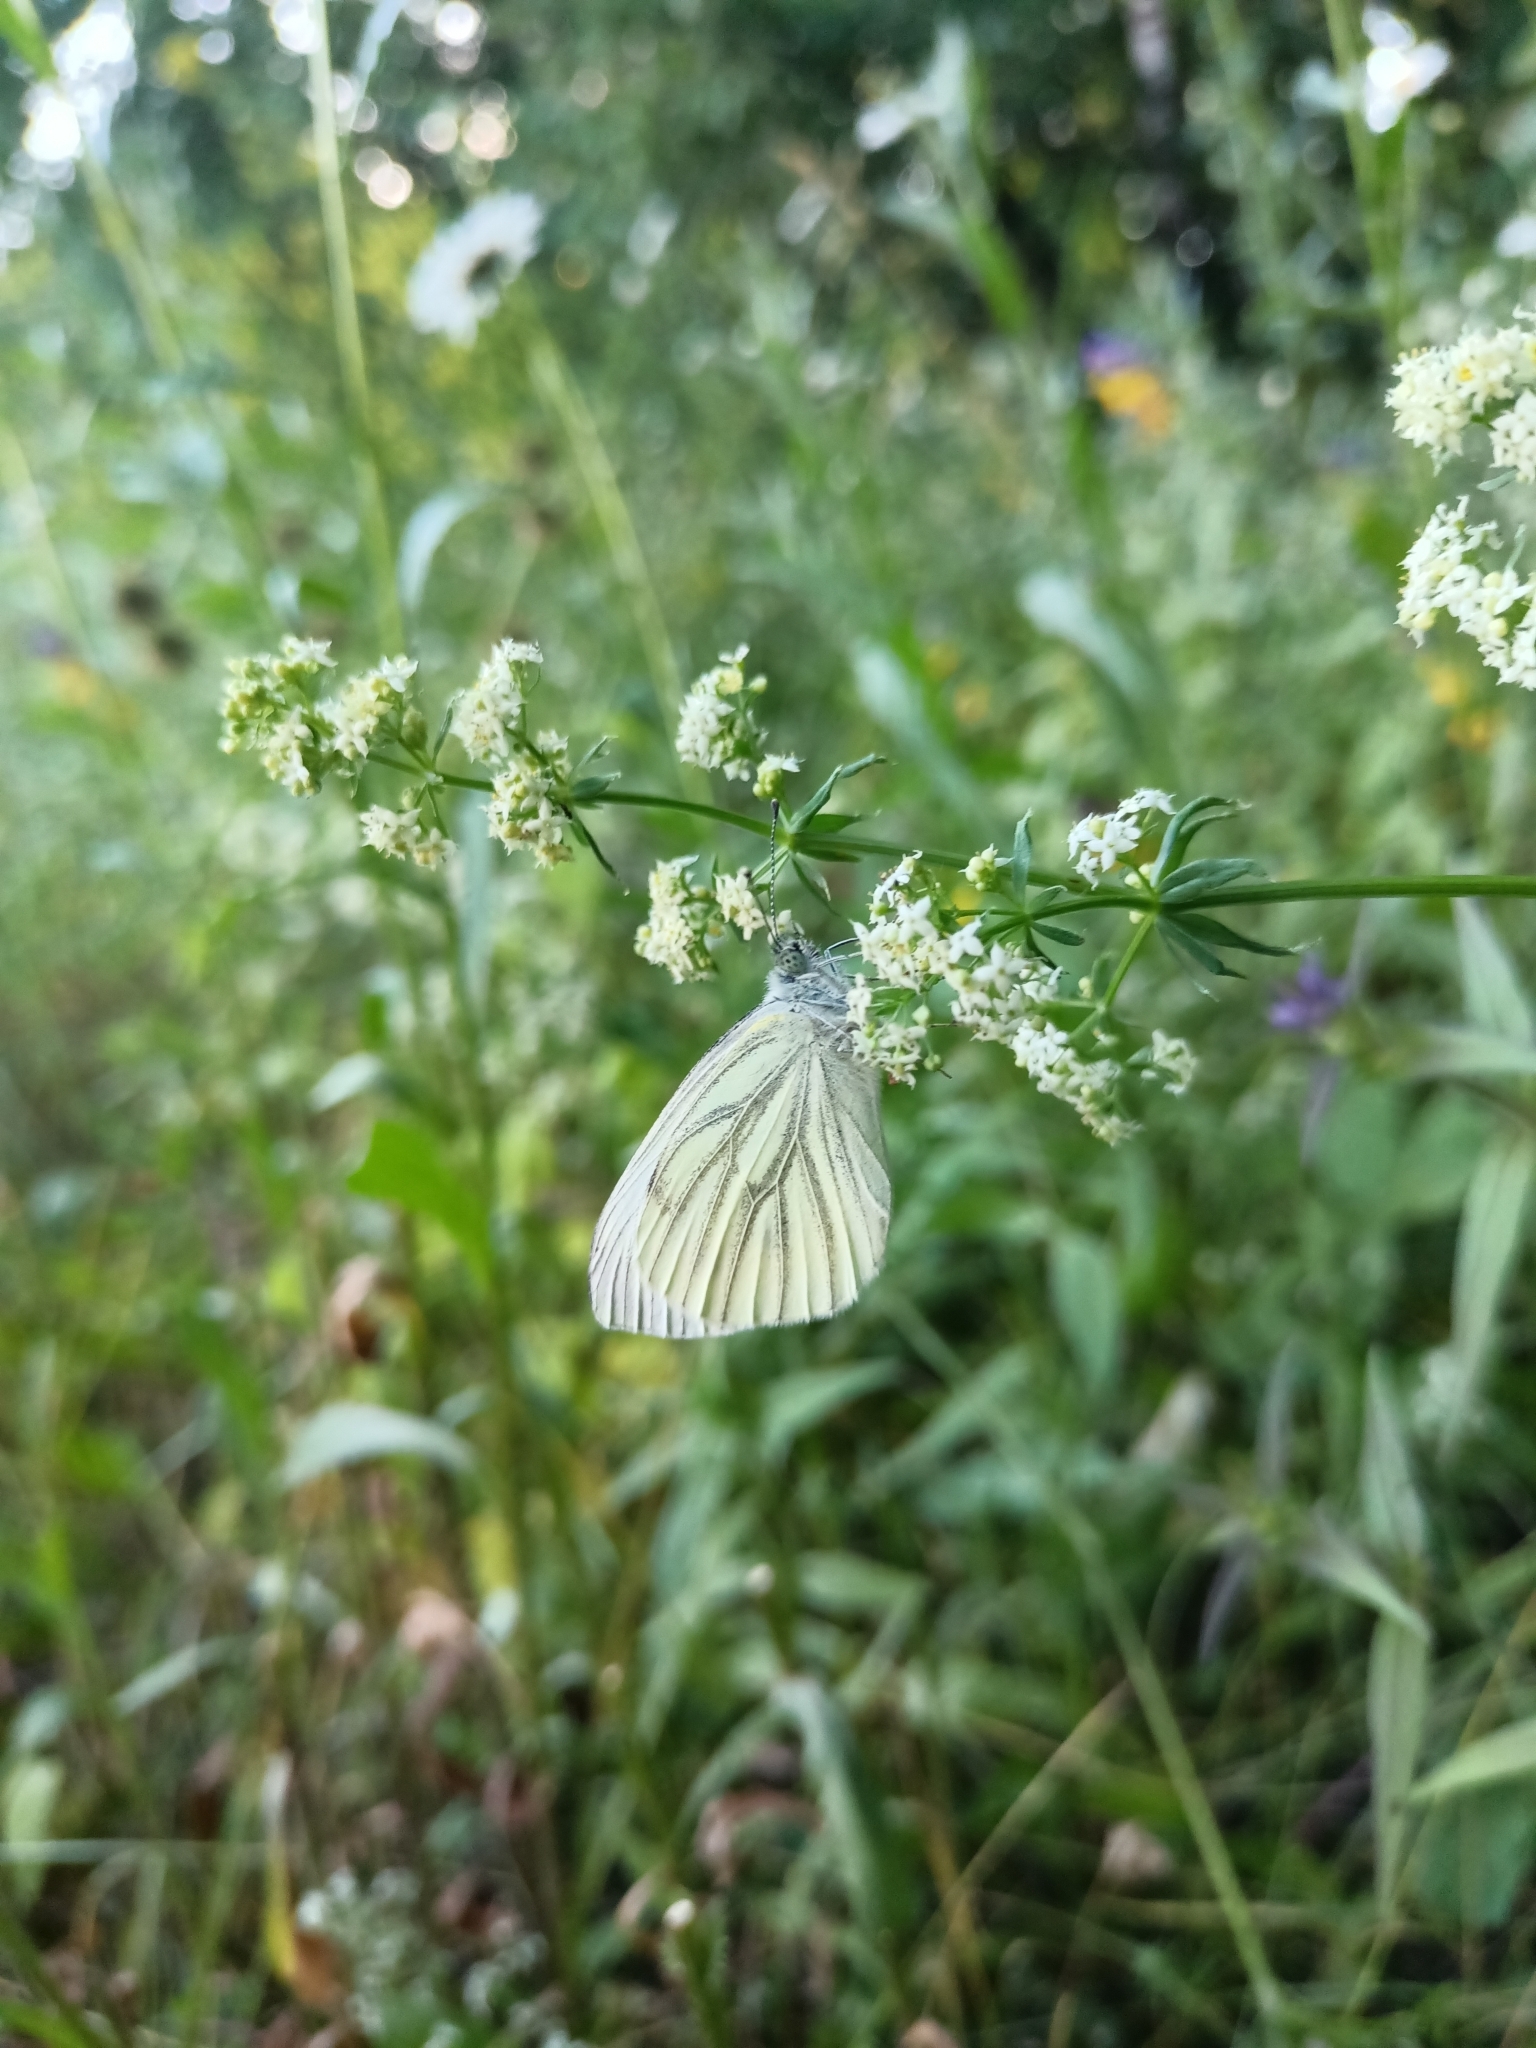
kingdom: Animalia
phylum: Arthropoda
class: Insecta
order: Lepidoptera
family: Pieridae
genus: Pieris
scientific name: Pieris napi
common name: Green-veined white
